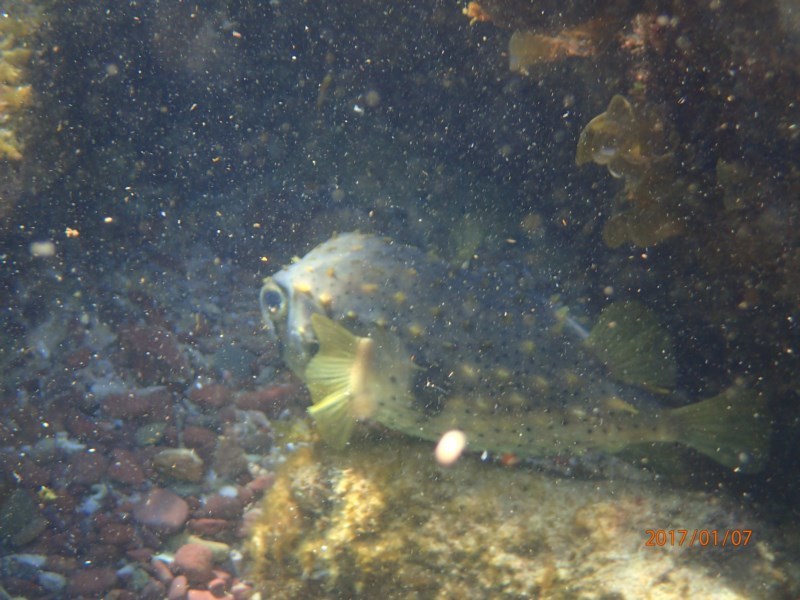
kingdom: Animalia
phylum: Chordata
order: Tetraodontiformes
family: Diodontidae
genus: Dicotylichthys
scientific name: Dicotylichthys punctulatus
